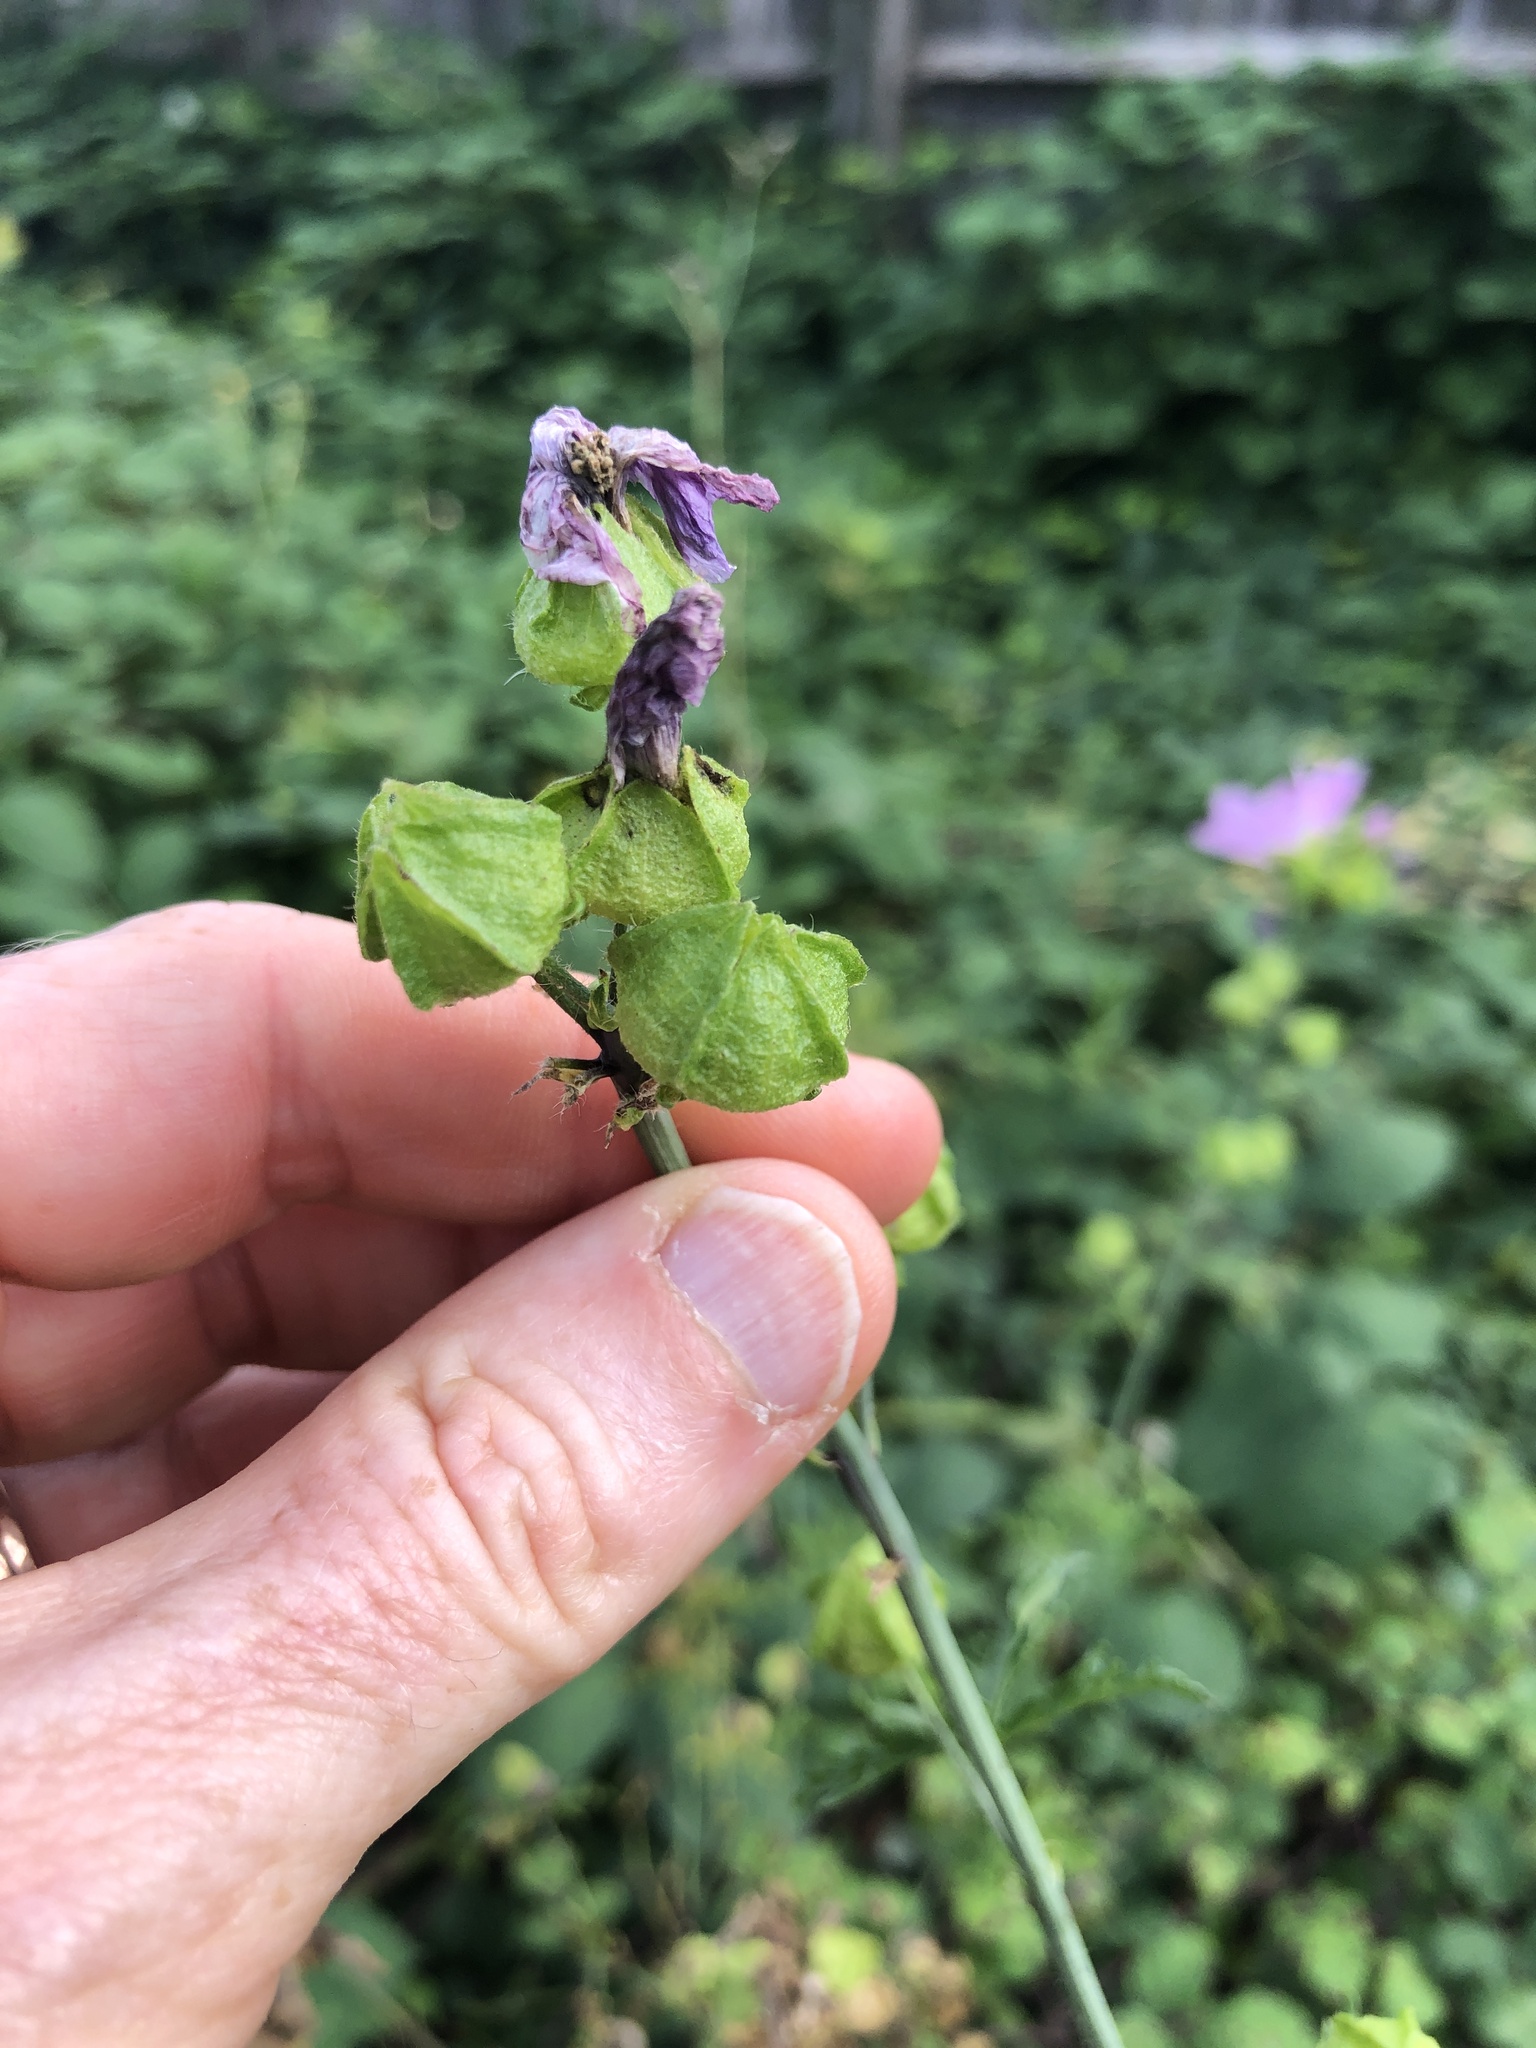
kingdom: Plantae
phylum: Tracheophyta
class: Magnoliopsida
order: Malvales
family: Malvaceae
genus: Malva
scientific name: Malva moschata
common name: Musk mallow
